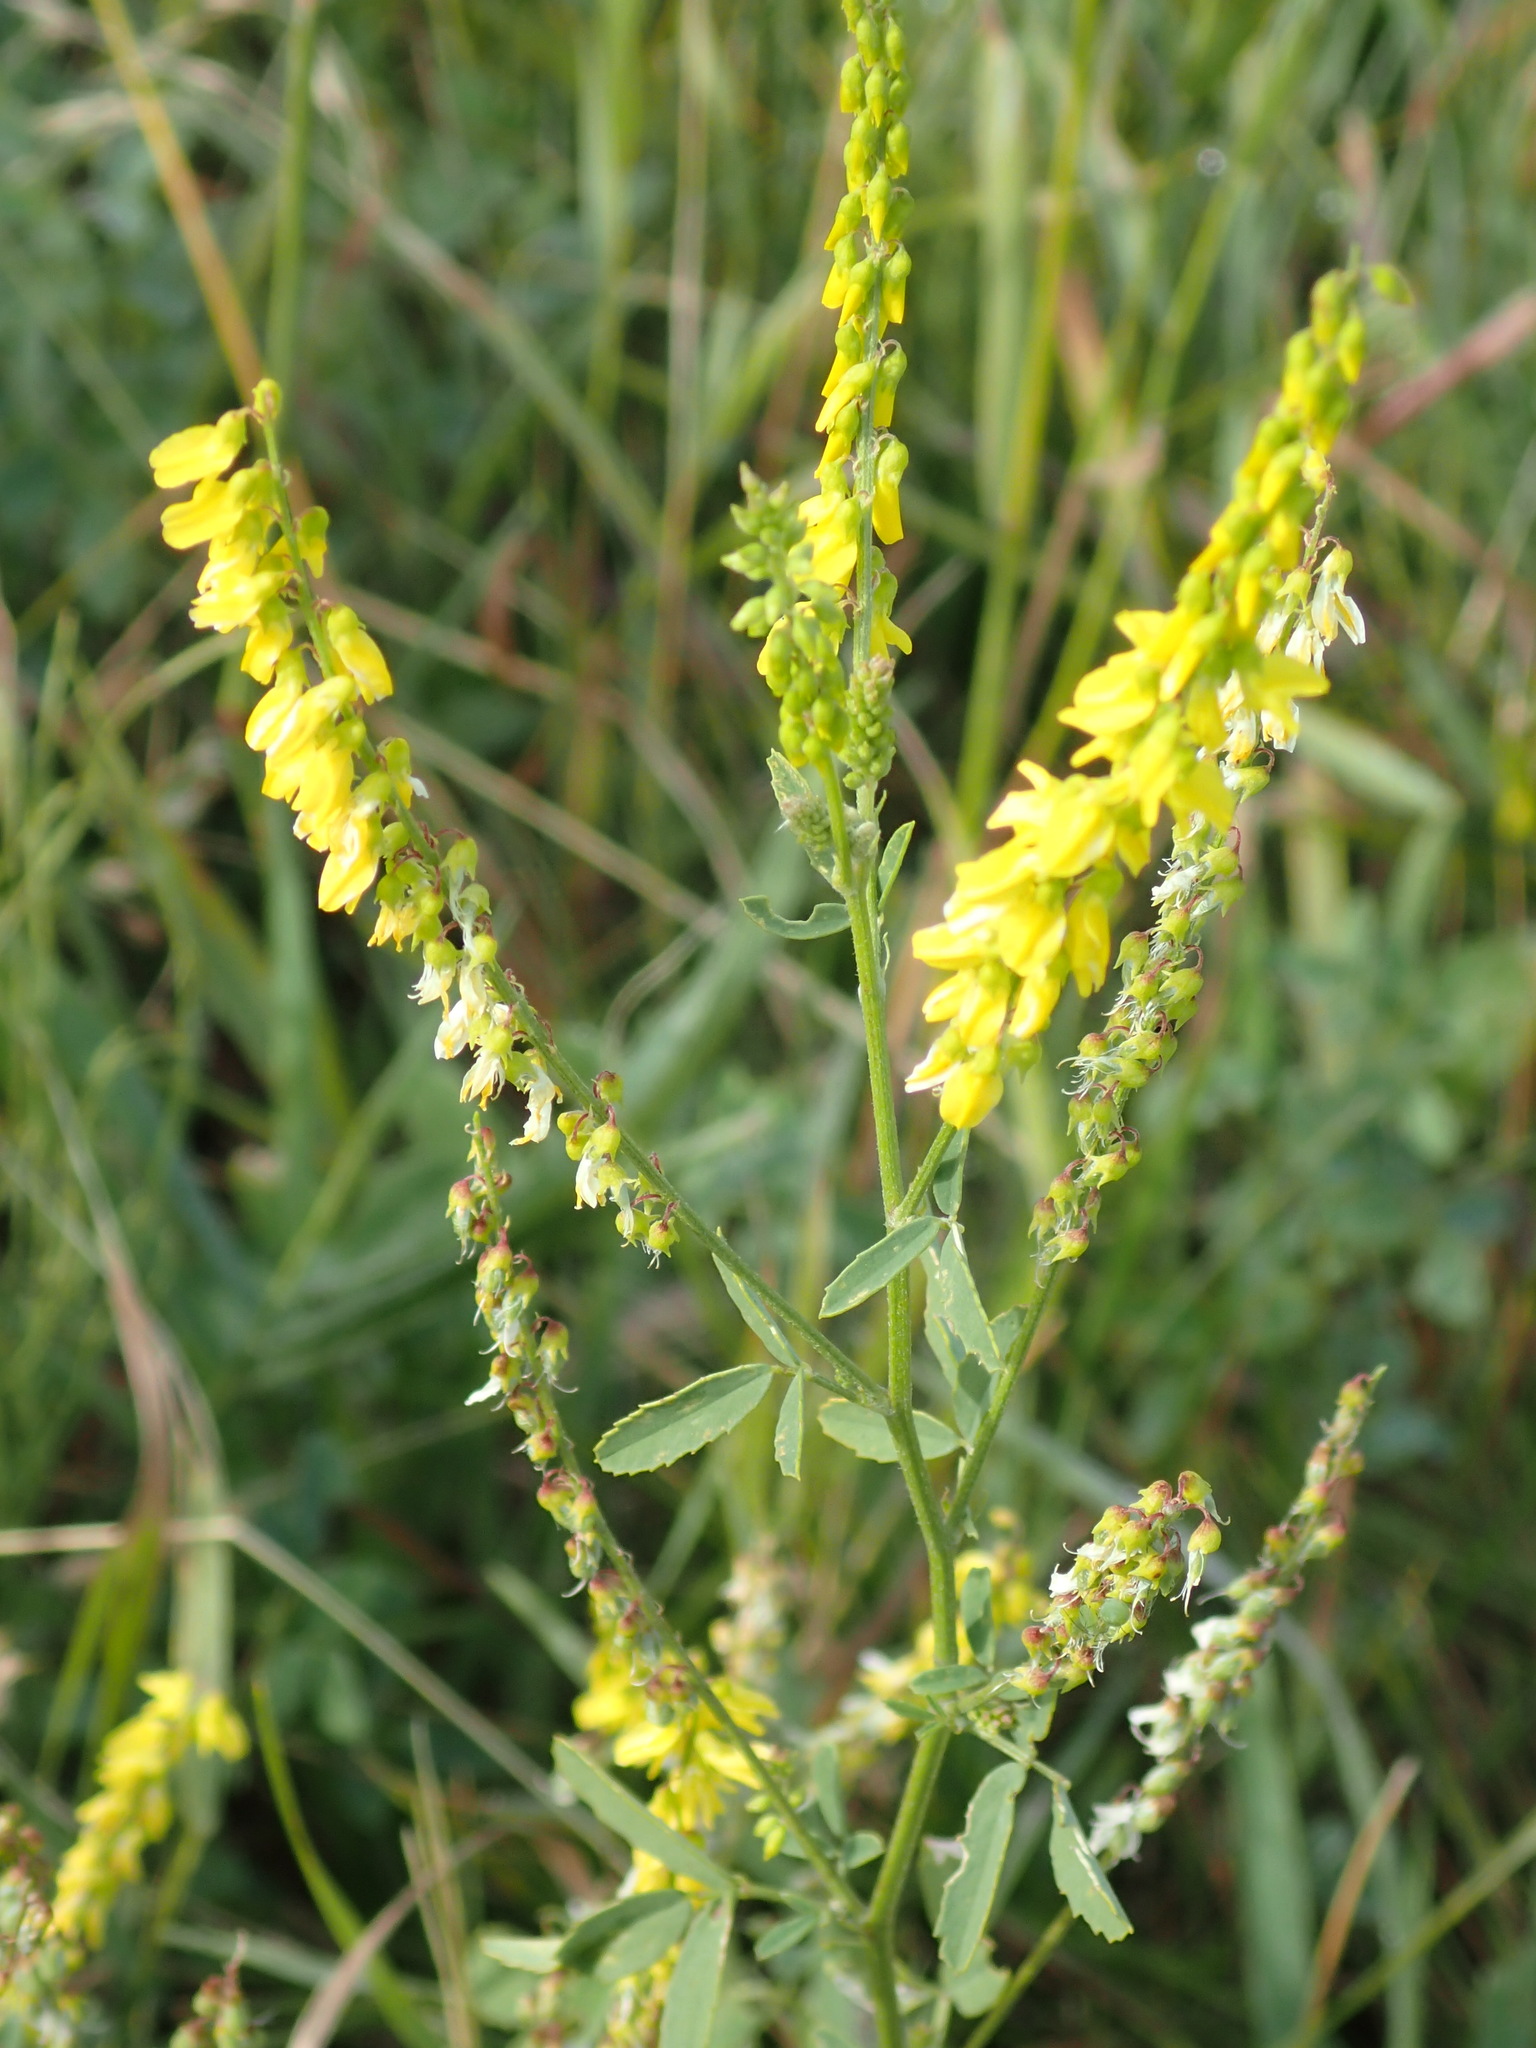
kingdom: Plantae
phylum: Tracheophyta
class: Magnoliopsida
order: Fabales
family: Fabaceae
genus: Melilotus
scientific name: Melilotus officinalis
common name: Sweetclover
